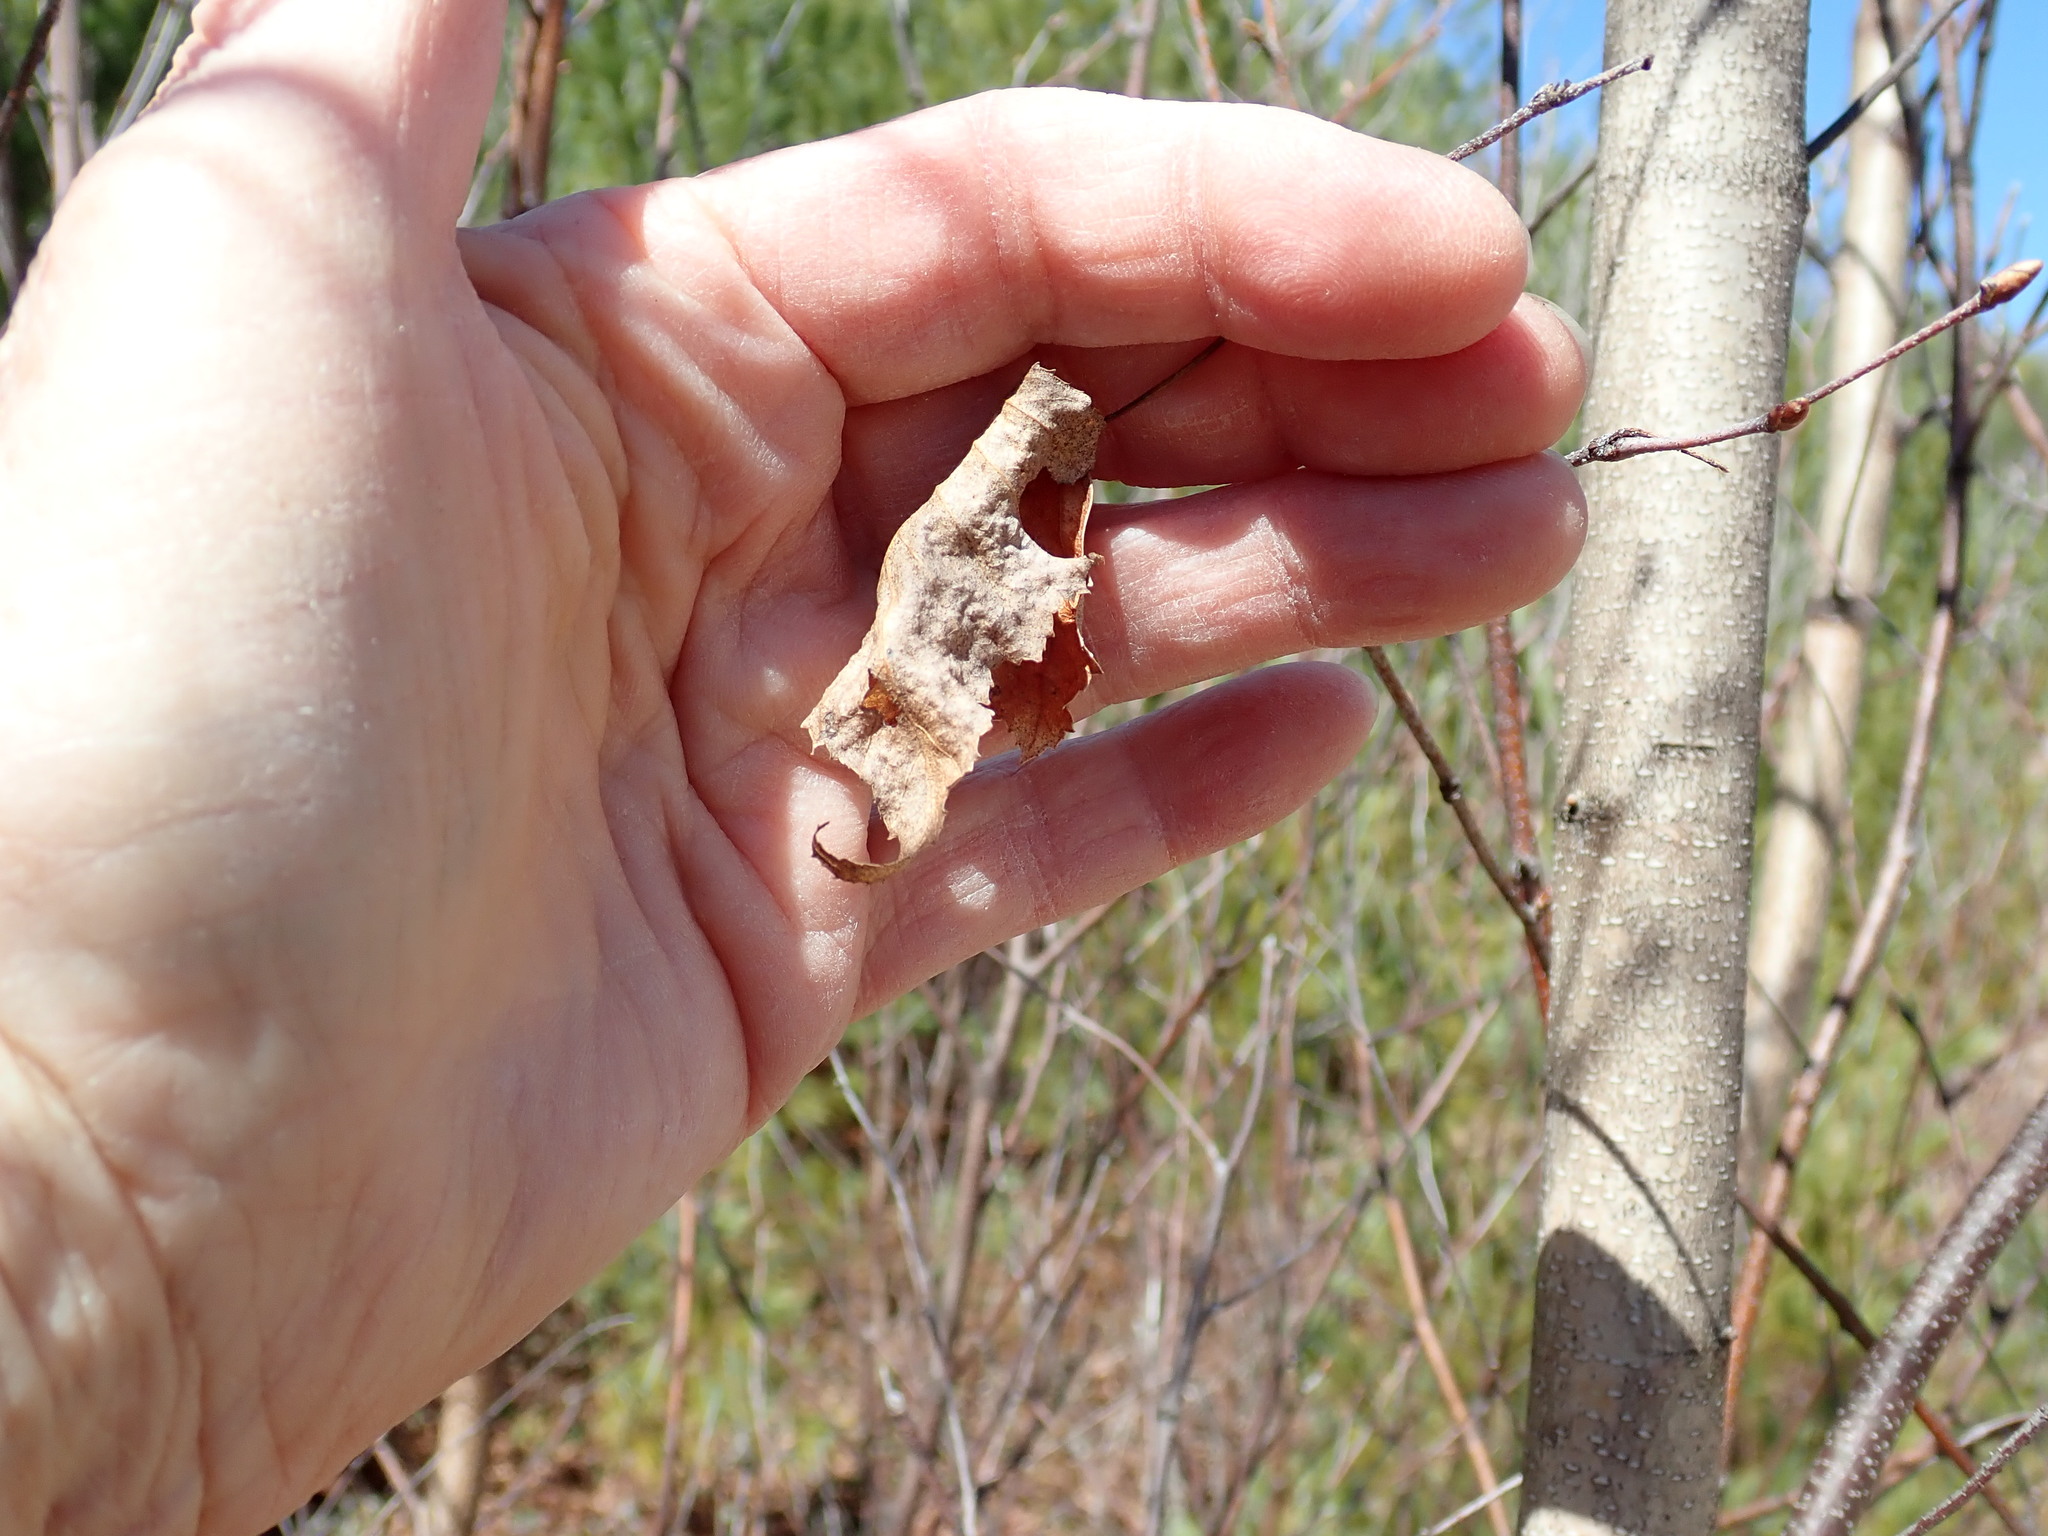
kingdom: Plantae
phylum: Tracheophyta
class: Magnoliopsida
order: Fagales
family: Betulaceae
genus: Betula
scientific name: Betula populifolia
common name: Fire birch
